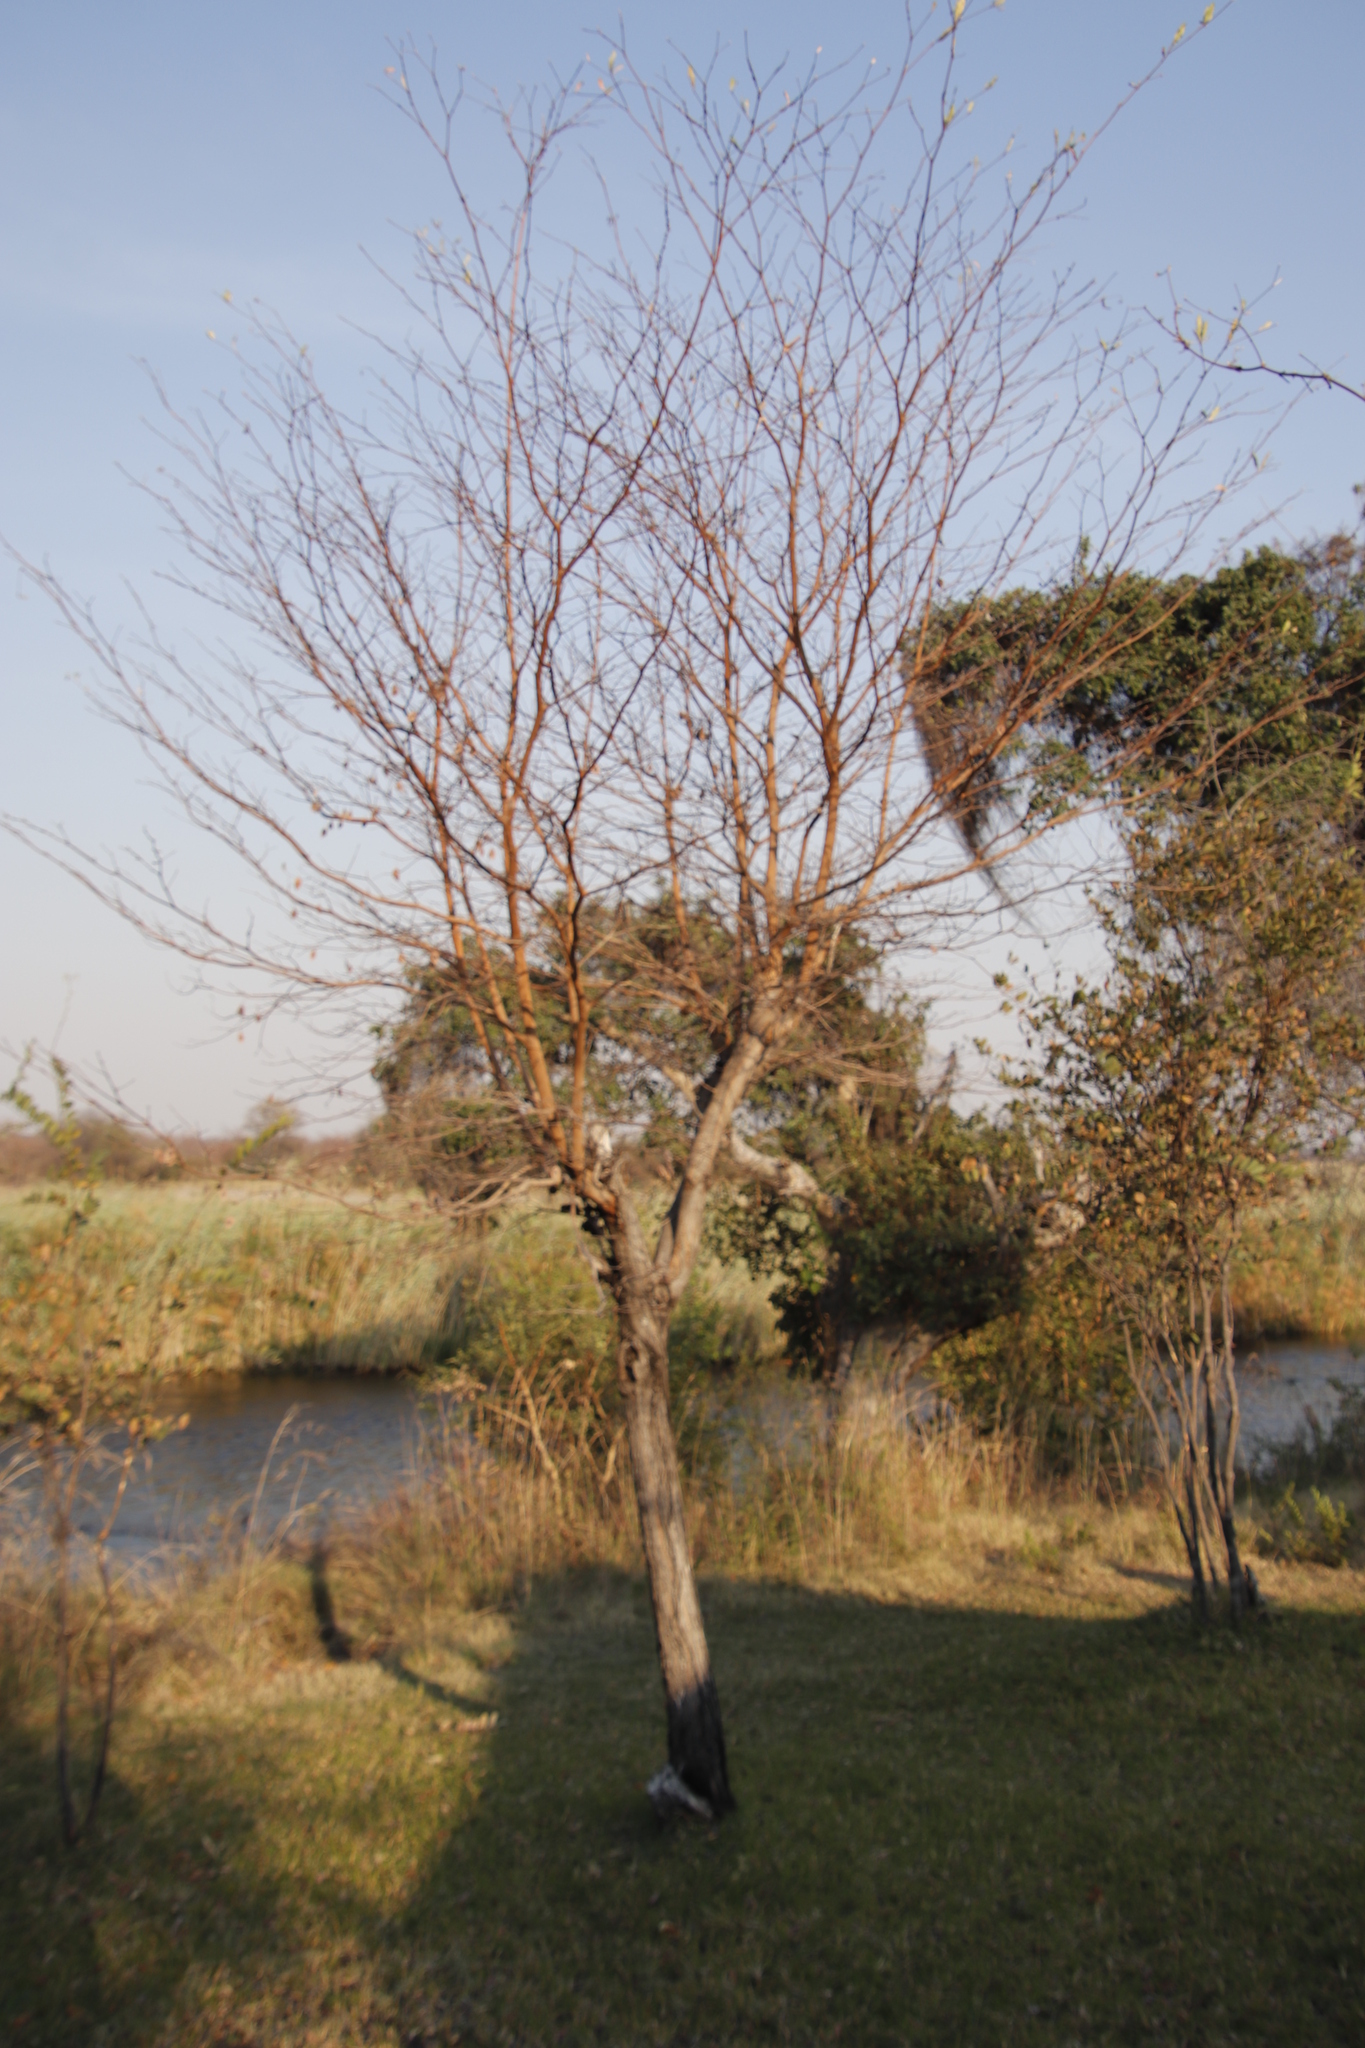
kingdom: Plantae
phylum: Tracheophyta
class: Magnoliopsida
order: Myrtales
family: Combretaceae
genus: Terminalia
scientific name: Terminalia brachystemma
